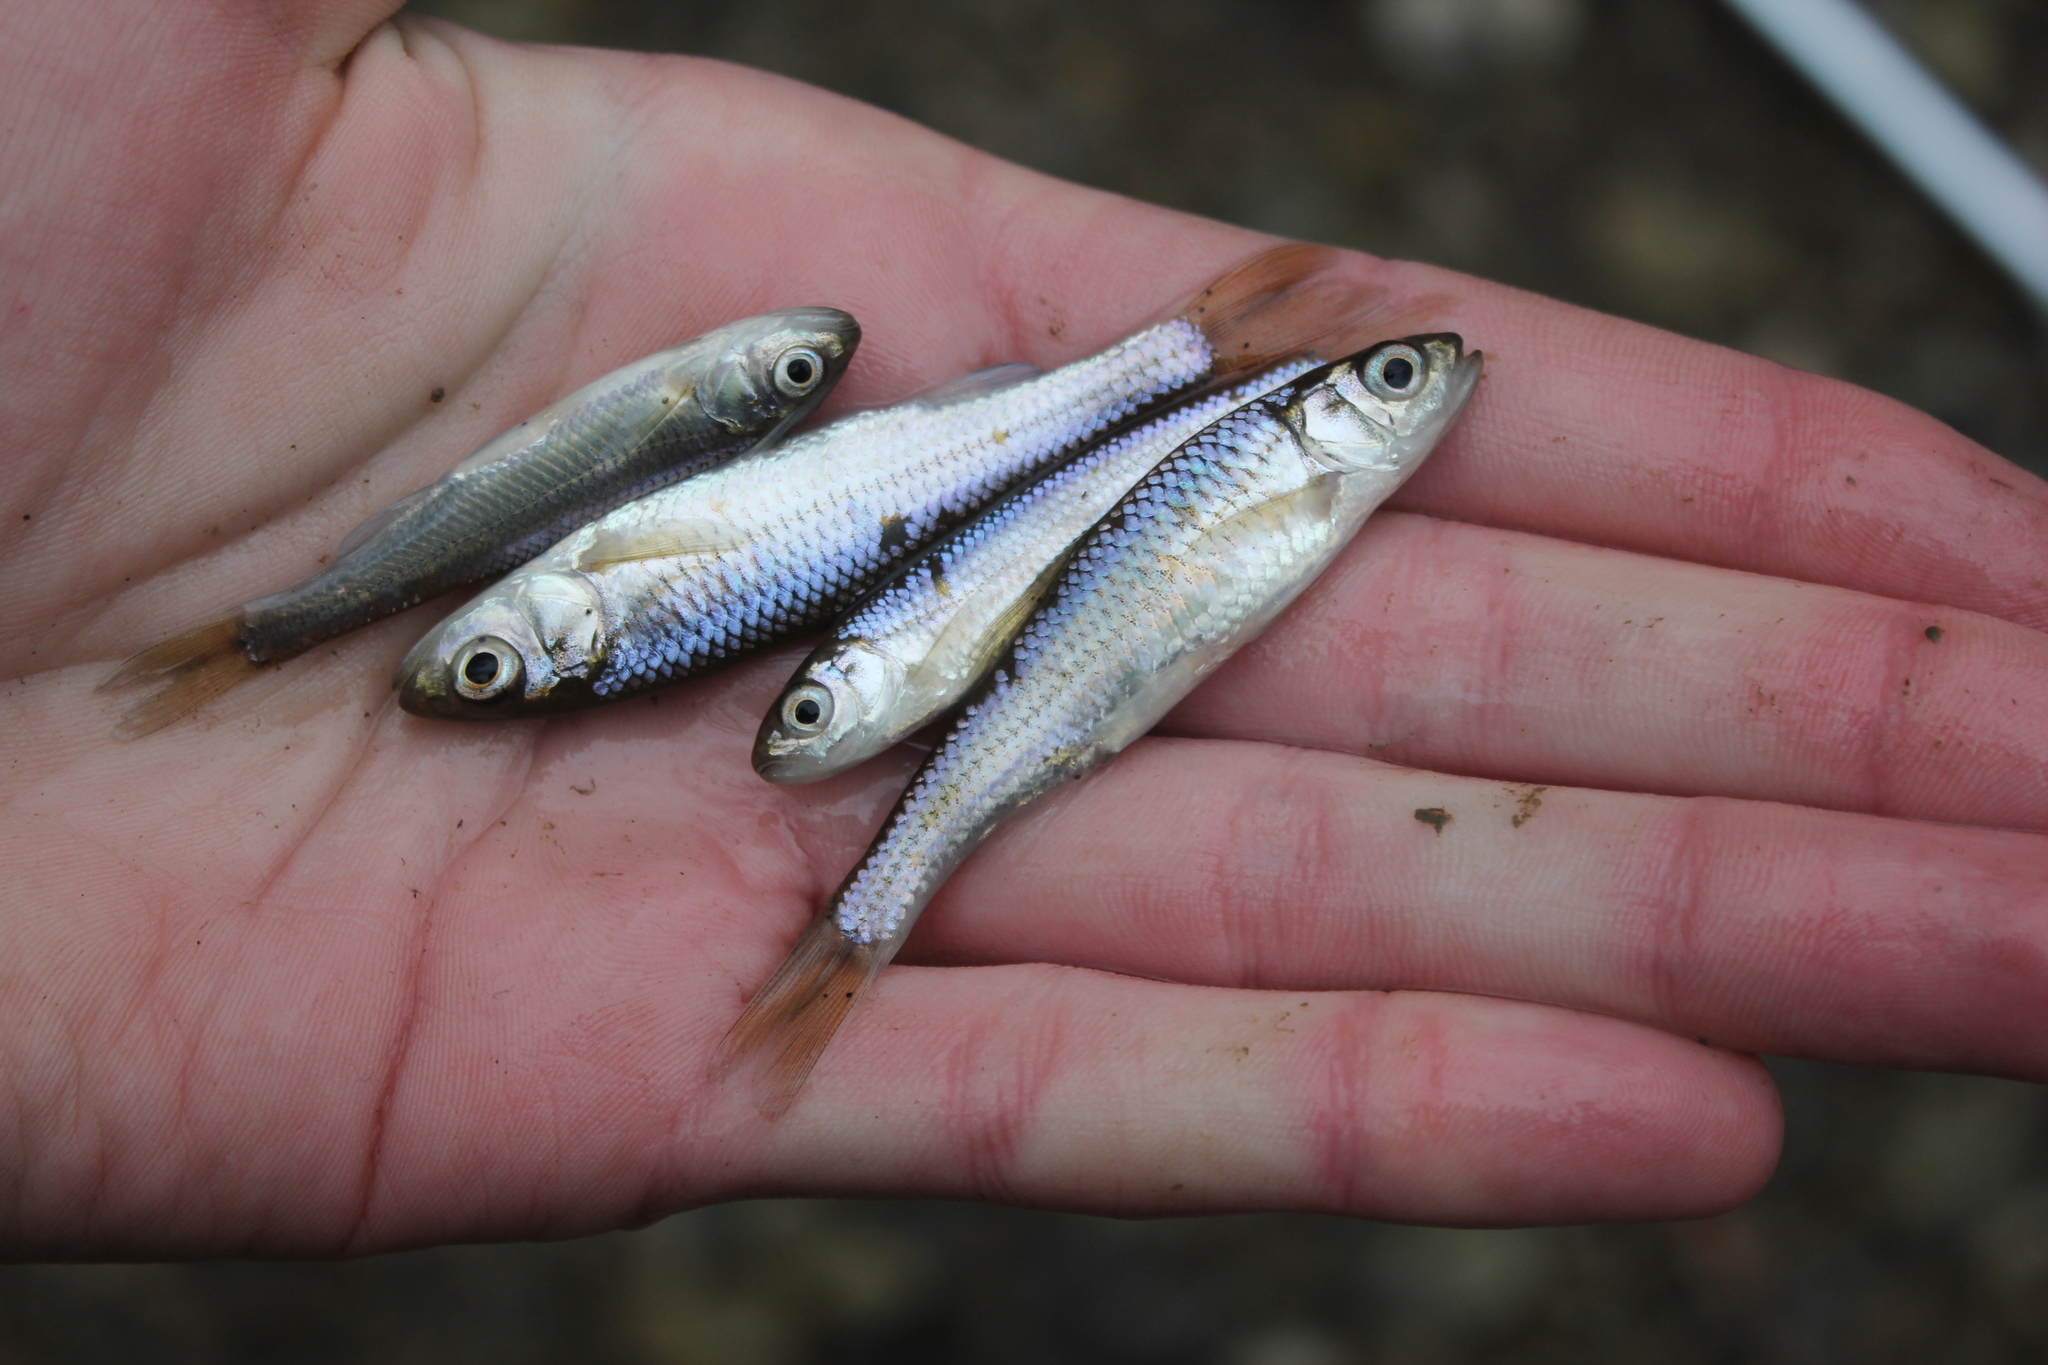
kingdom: Animalia
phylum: Chordata
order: Cypriniformes
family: Cyprinidae
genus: Luxilus
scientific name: Luxilus chrysocephalus
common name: Striped shiner
